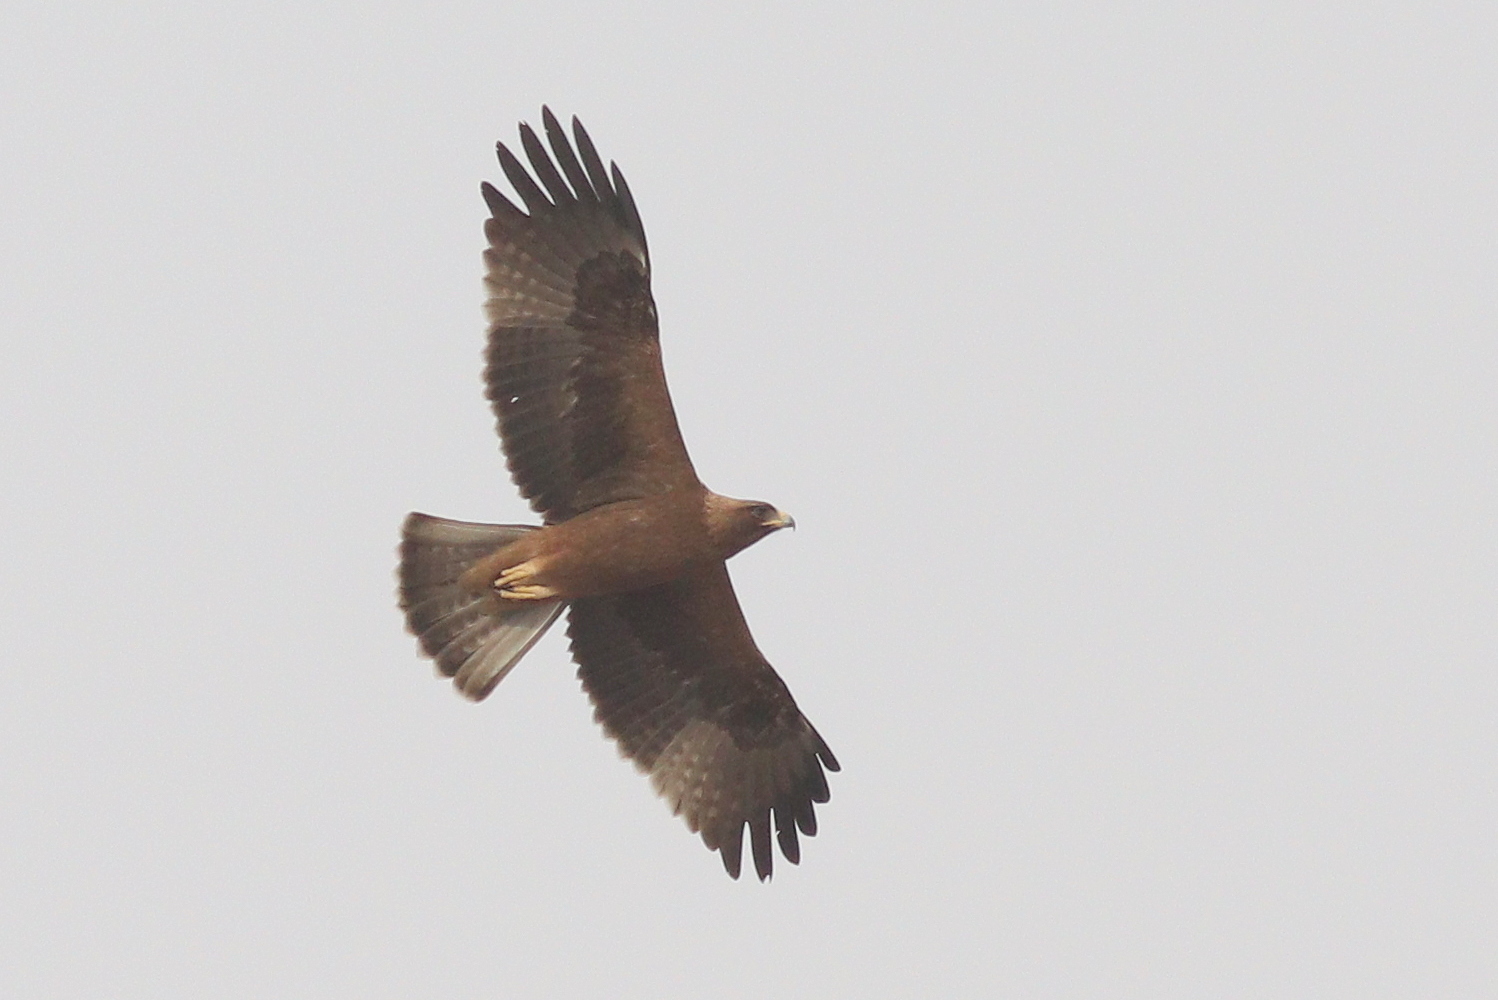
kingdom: Animalia
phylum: Chordata
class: Aves
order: Accipitriformes
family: Accipitridae
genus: Hieraaetus
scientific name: Hieraaetus pennatus
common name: Booted eagle
